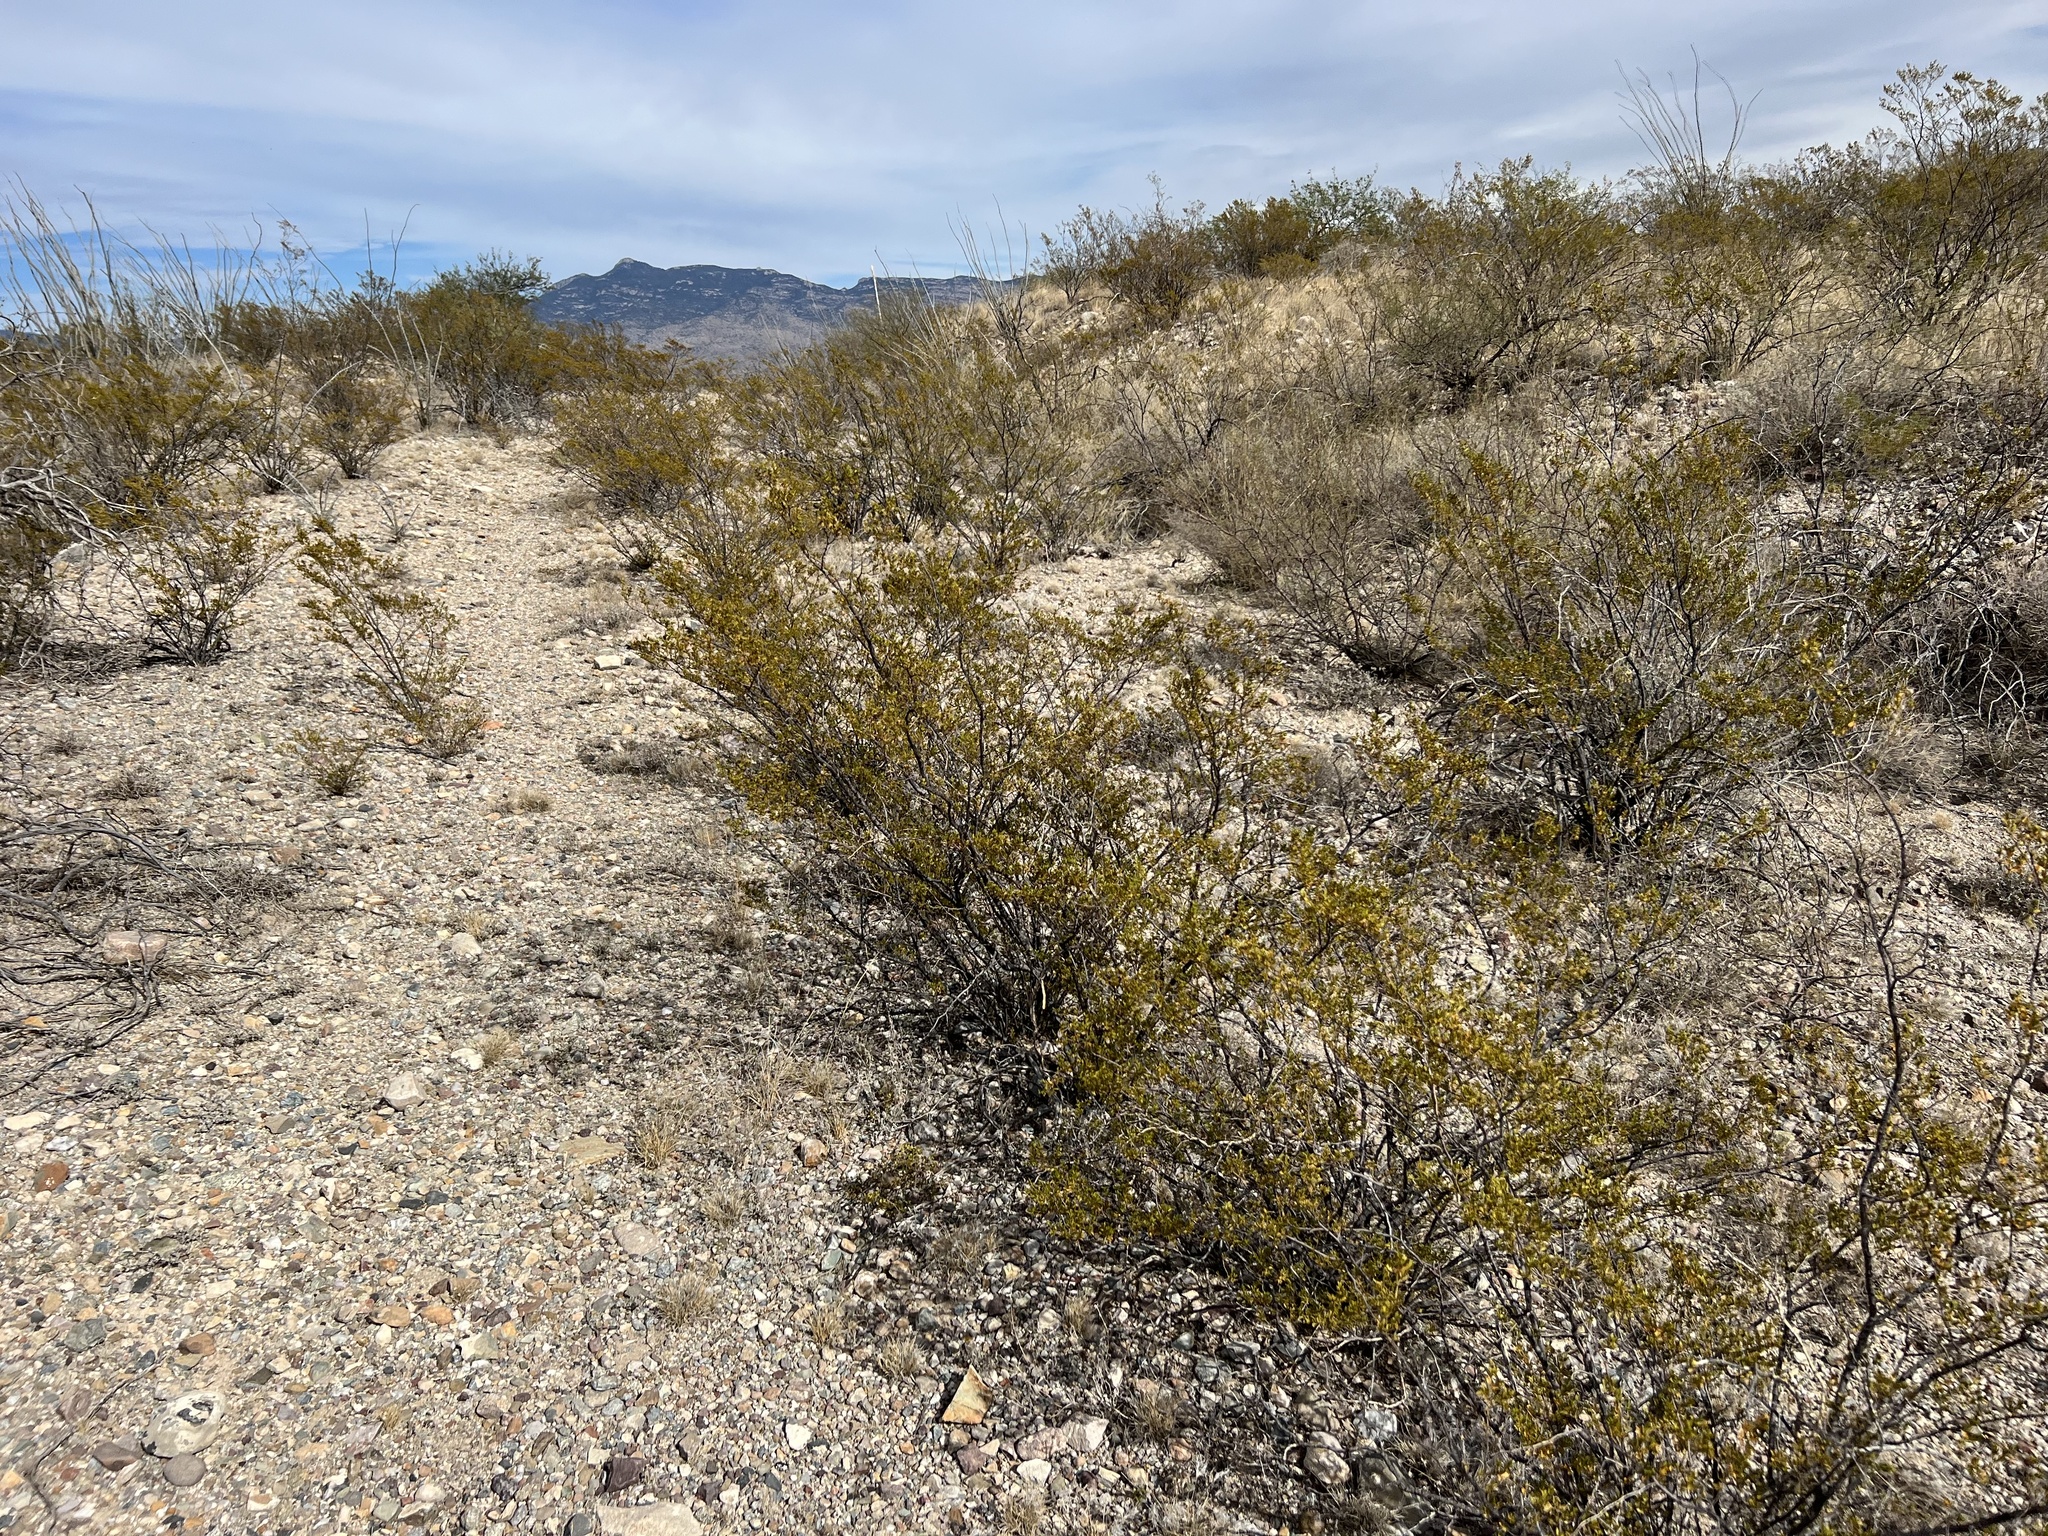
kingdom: Plantae
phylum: Tracheophyta
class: Magnoliopsida
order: Zygophyllales
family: Zygophyllaceae
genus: Larrea
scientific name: Larrea tridentata
